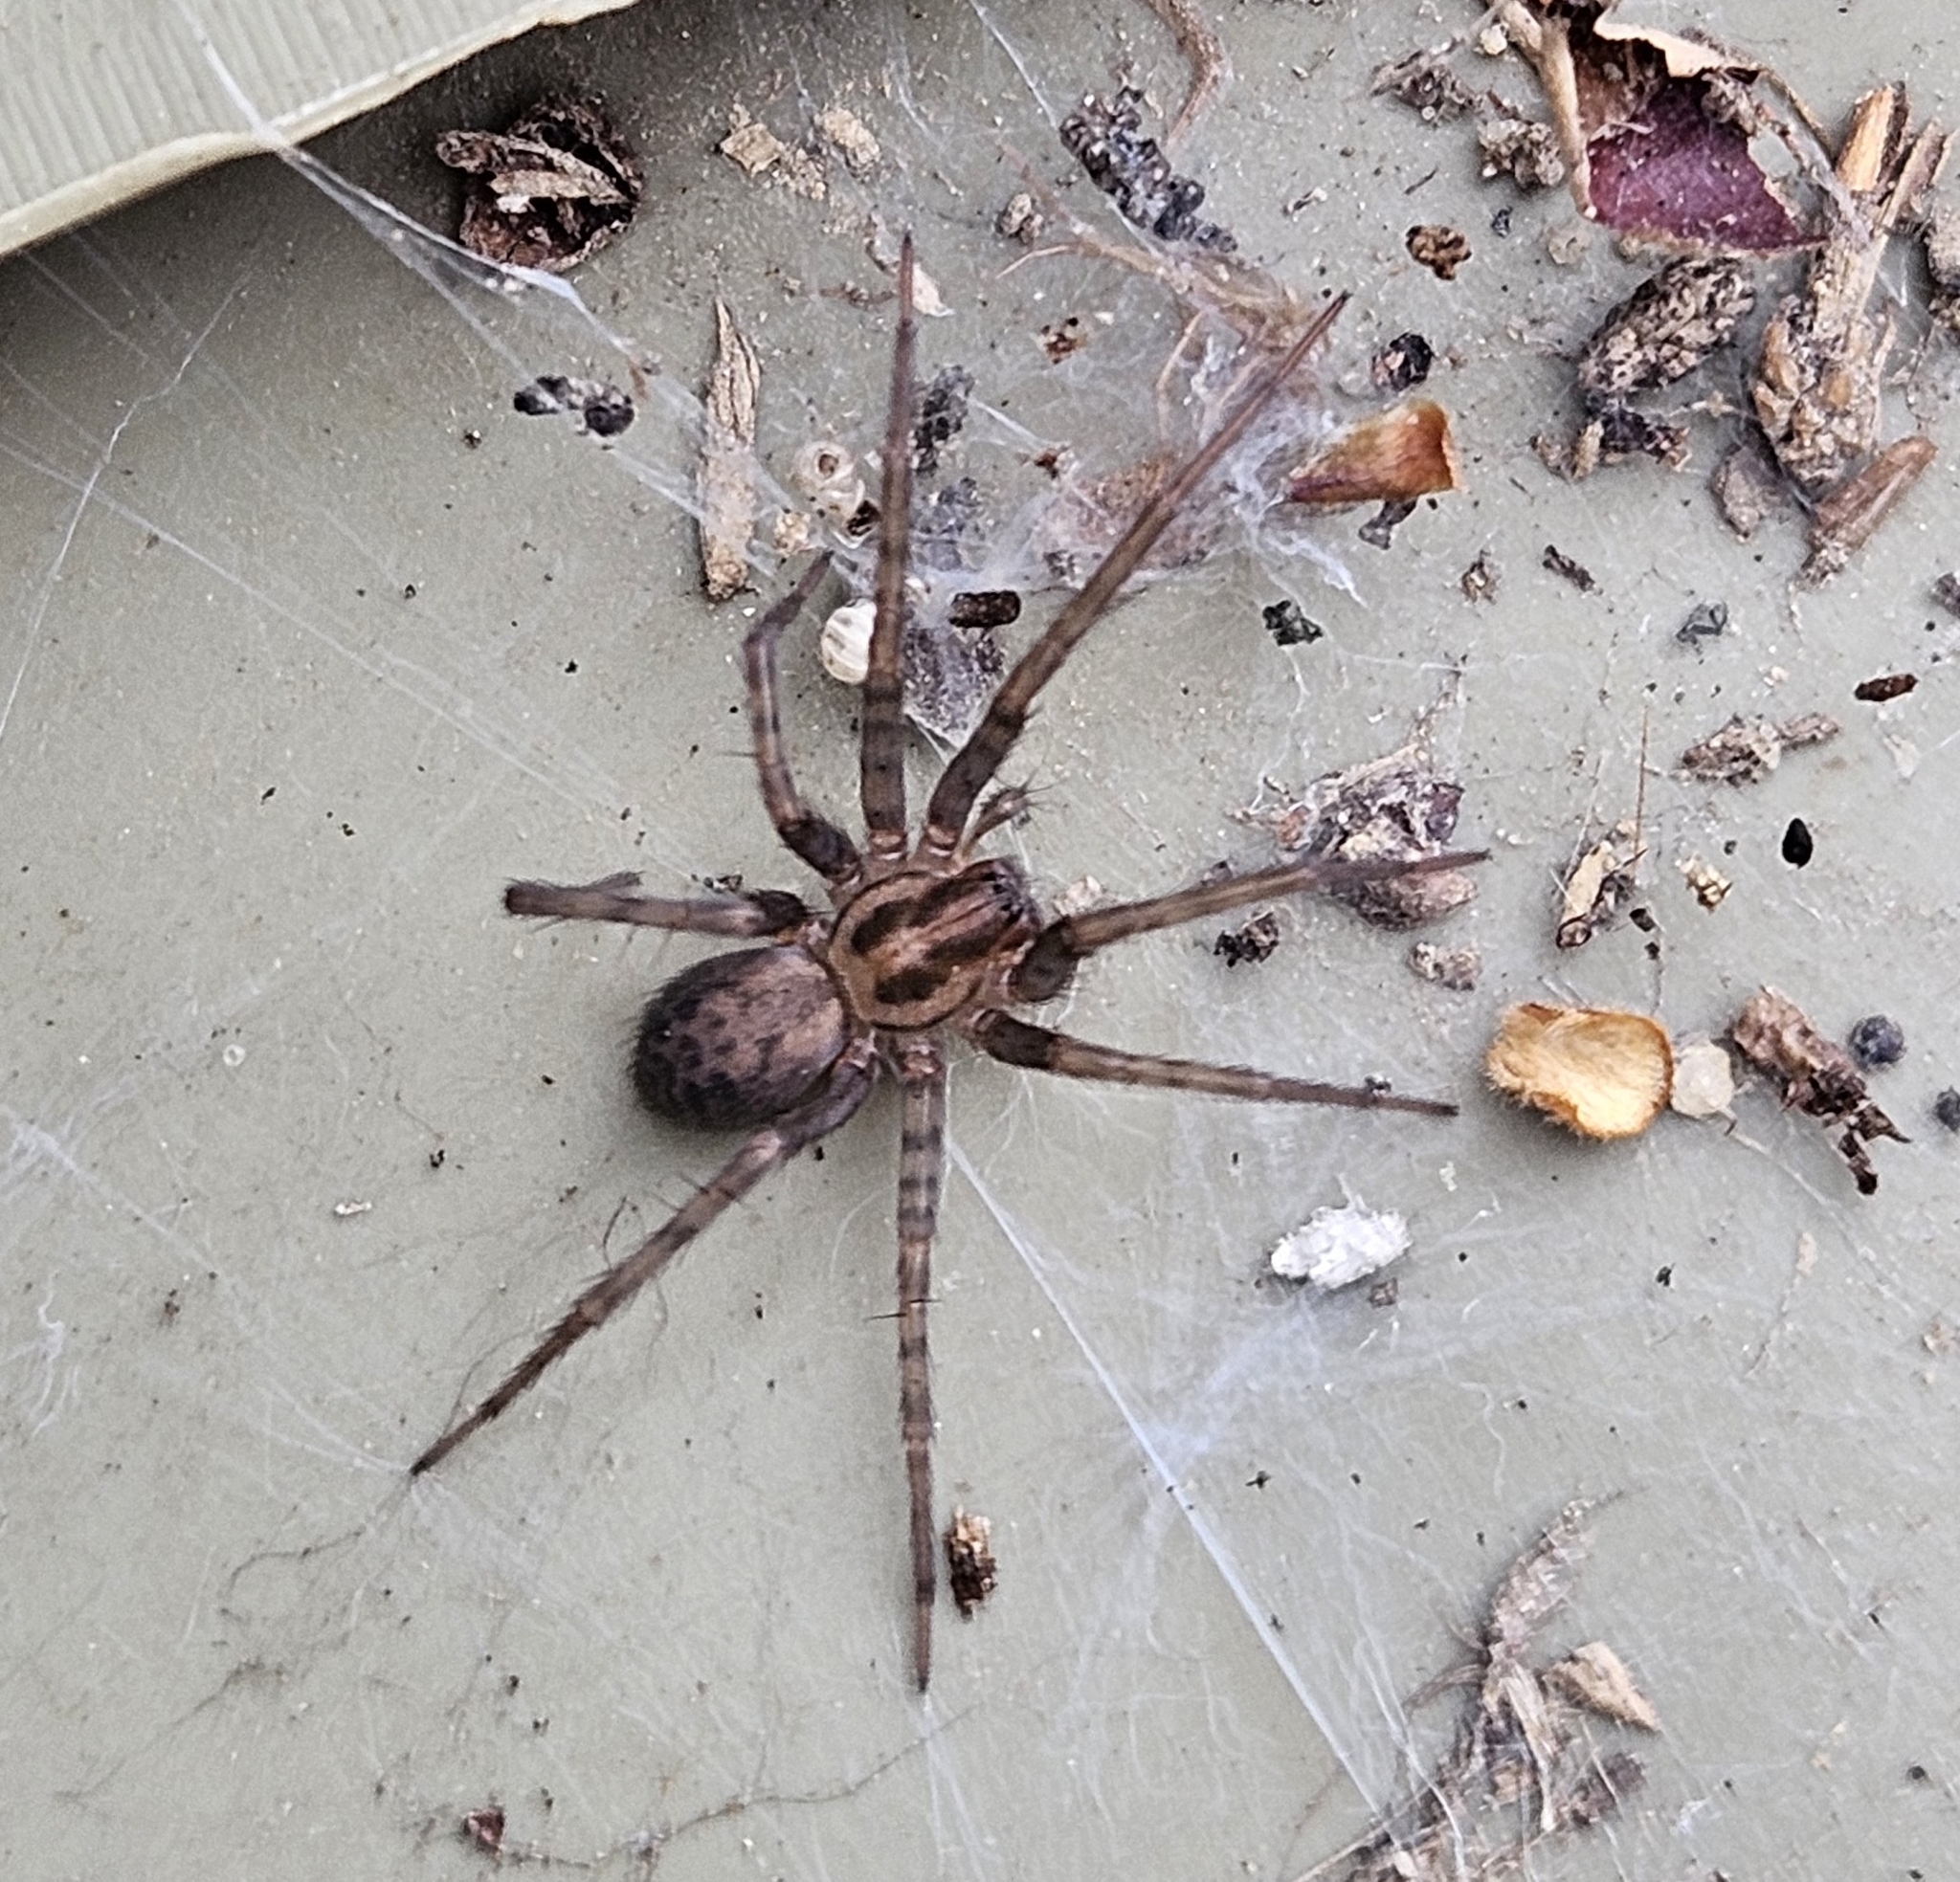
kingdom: Animalia
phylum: Arthropoda
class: Arachnida
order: Araneae
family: Agelenidae
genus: Tegenaria
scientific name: Tegenaria domestica
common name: Barn funnel weaver
